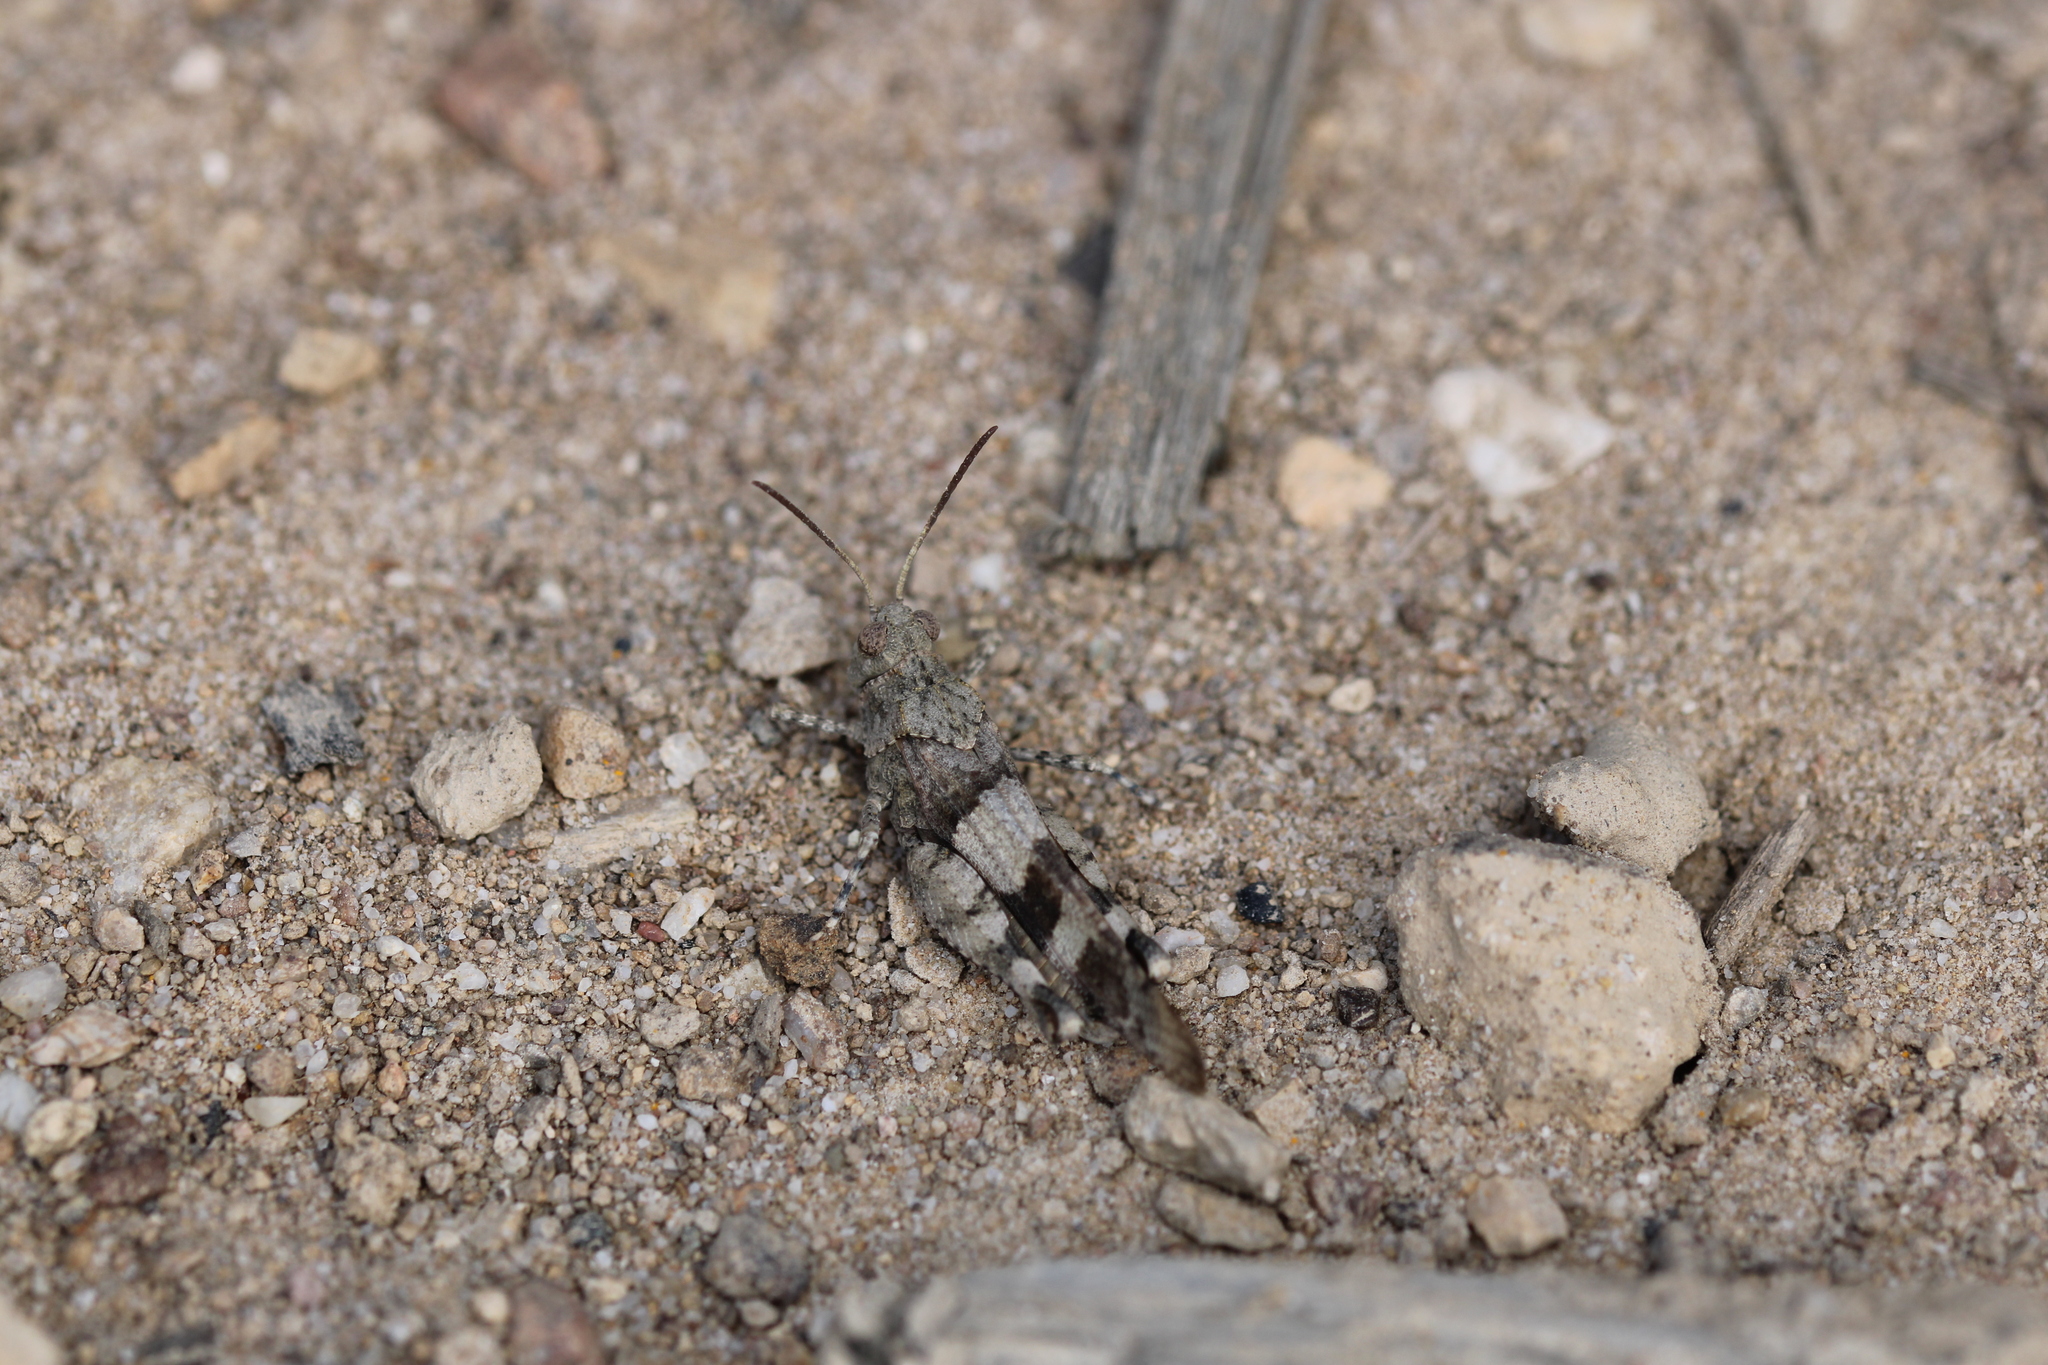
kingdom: Animalia
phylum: Arthropoda
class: Insecta
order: Orthoptera
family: Acrididae
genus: Oedipoda
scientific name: Oedipoda caerulescens
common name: Blue-winged grasshopper
